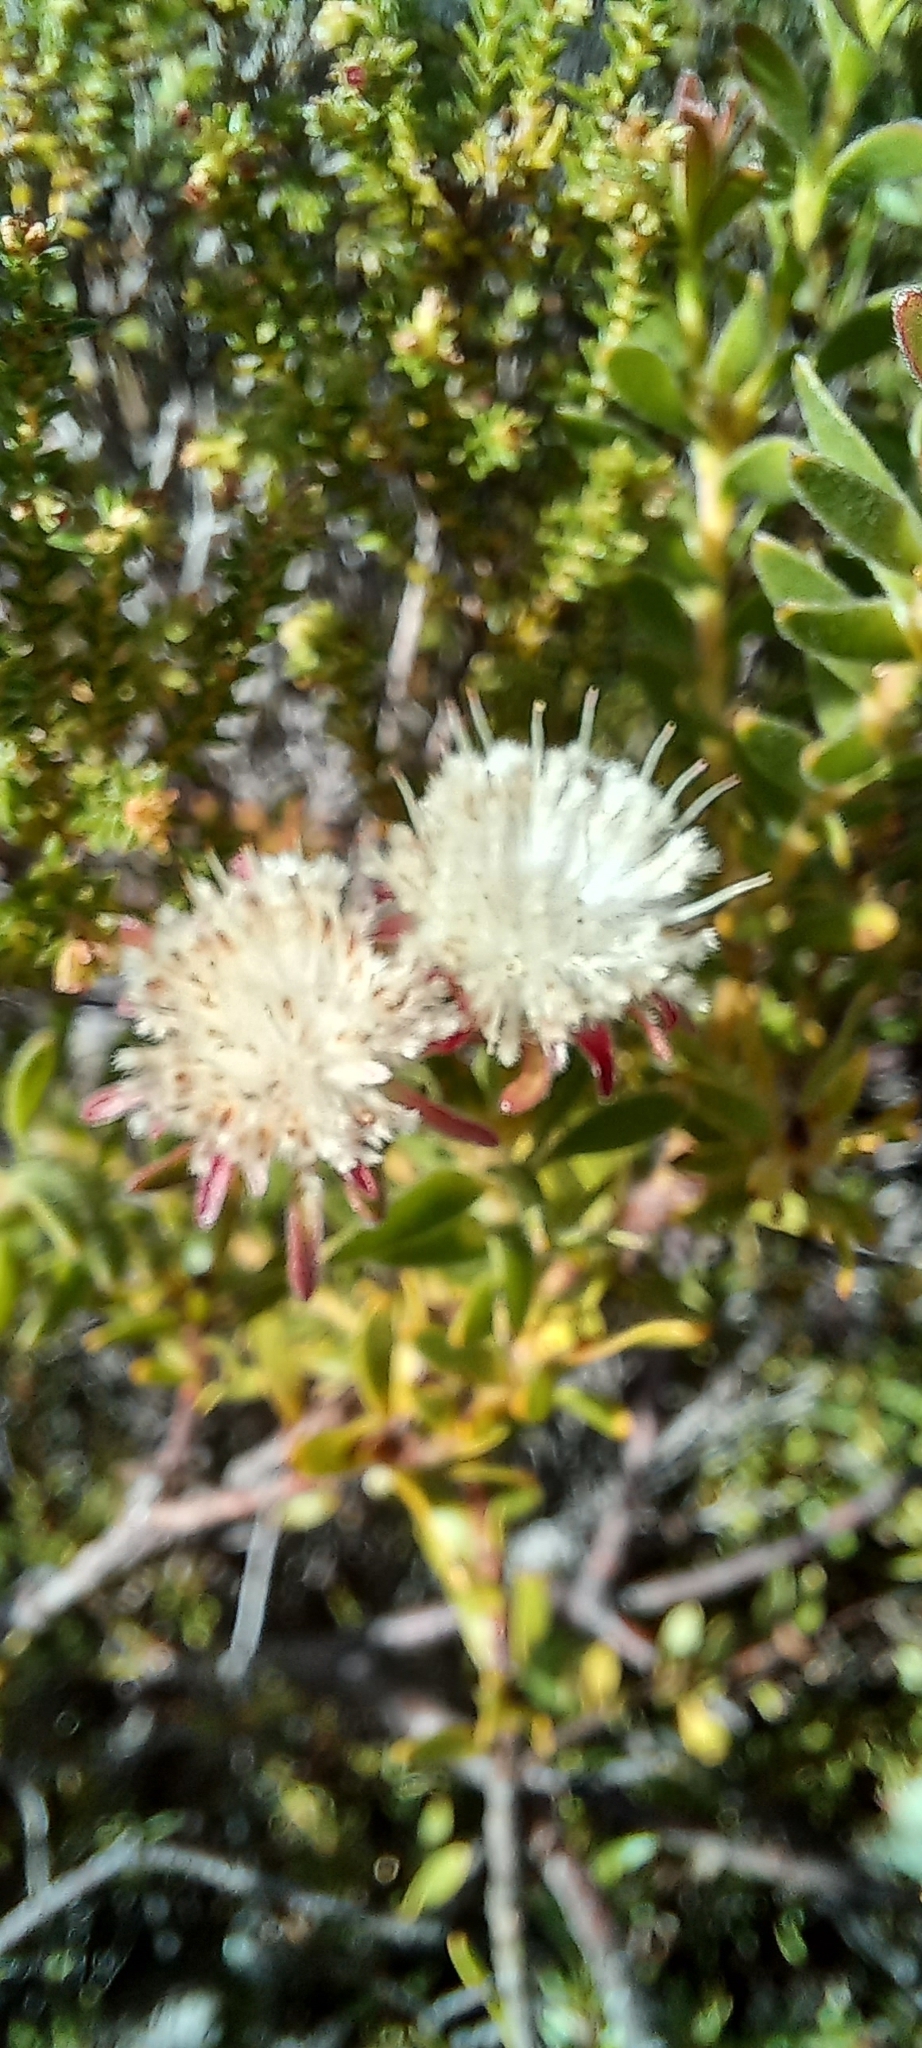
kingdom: Plantae
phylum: Tracheophyta
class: Magnoliopsida
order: Proteales
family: Proteaceae
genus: Diastella
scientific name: Diastella fraterna
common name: Palmiet silkypuff
